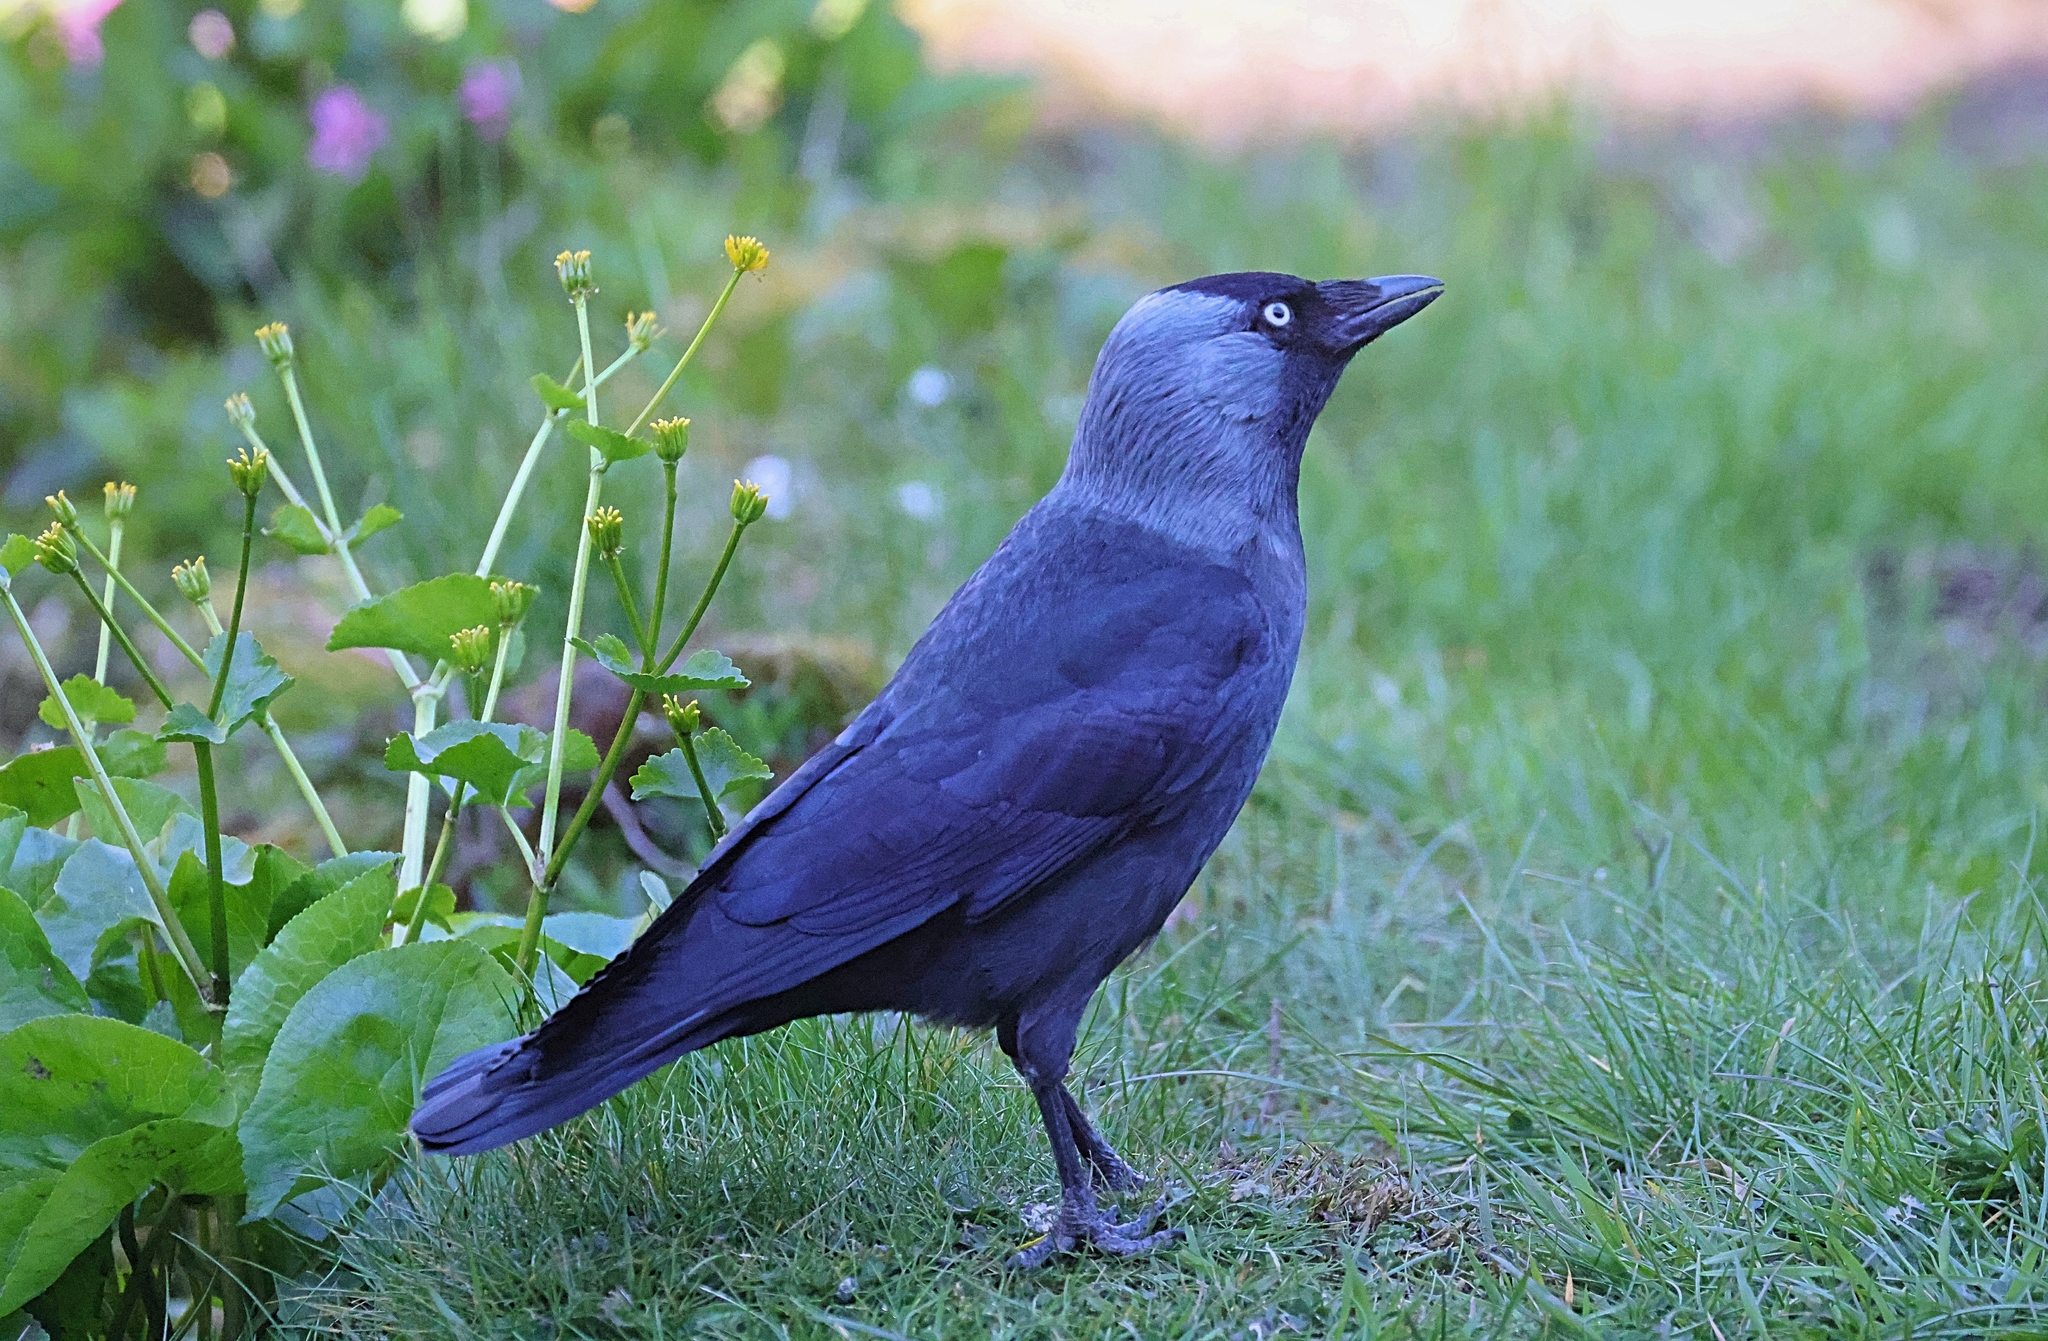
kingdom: Animalia
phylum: Chordata
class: Aves
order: Passeriformes
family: Corvidae
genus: Coloeus
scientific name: Coloeus monedula
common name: Western jackdaw
